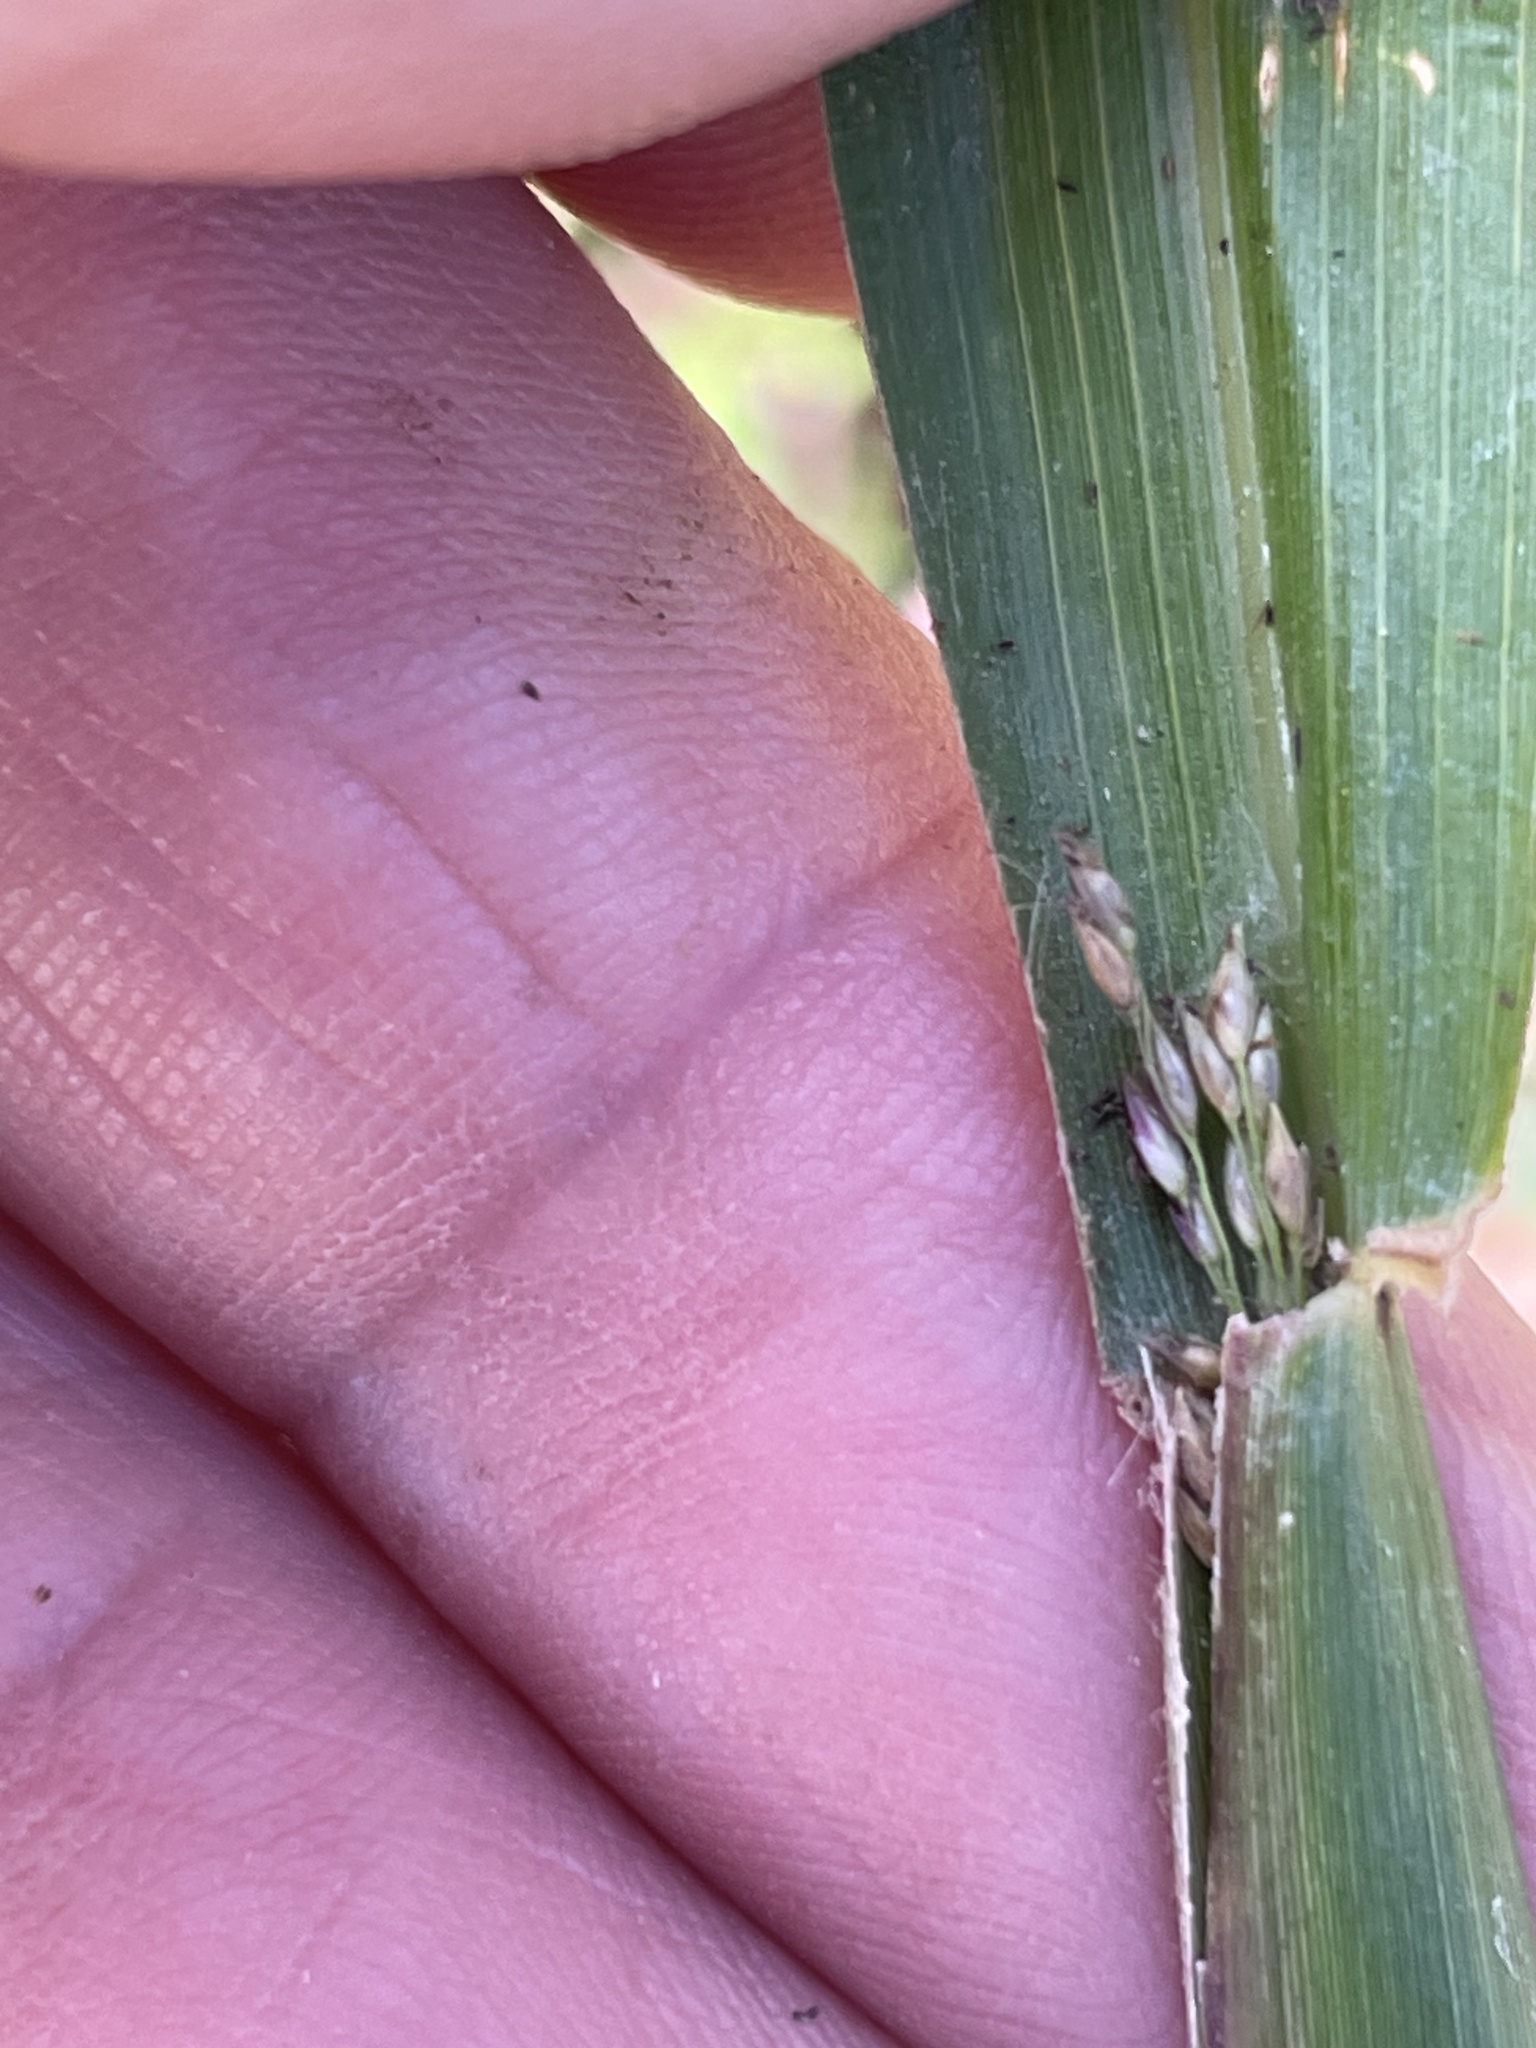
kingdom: Plantae
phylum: Tracheophyta
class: Liliopsida
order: Poales
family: Poaceae
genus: Coleataenia
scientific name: Coleataenia rigidula
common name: Redtop panicgrass
